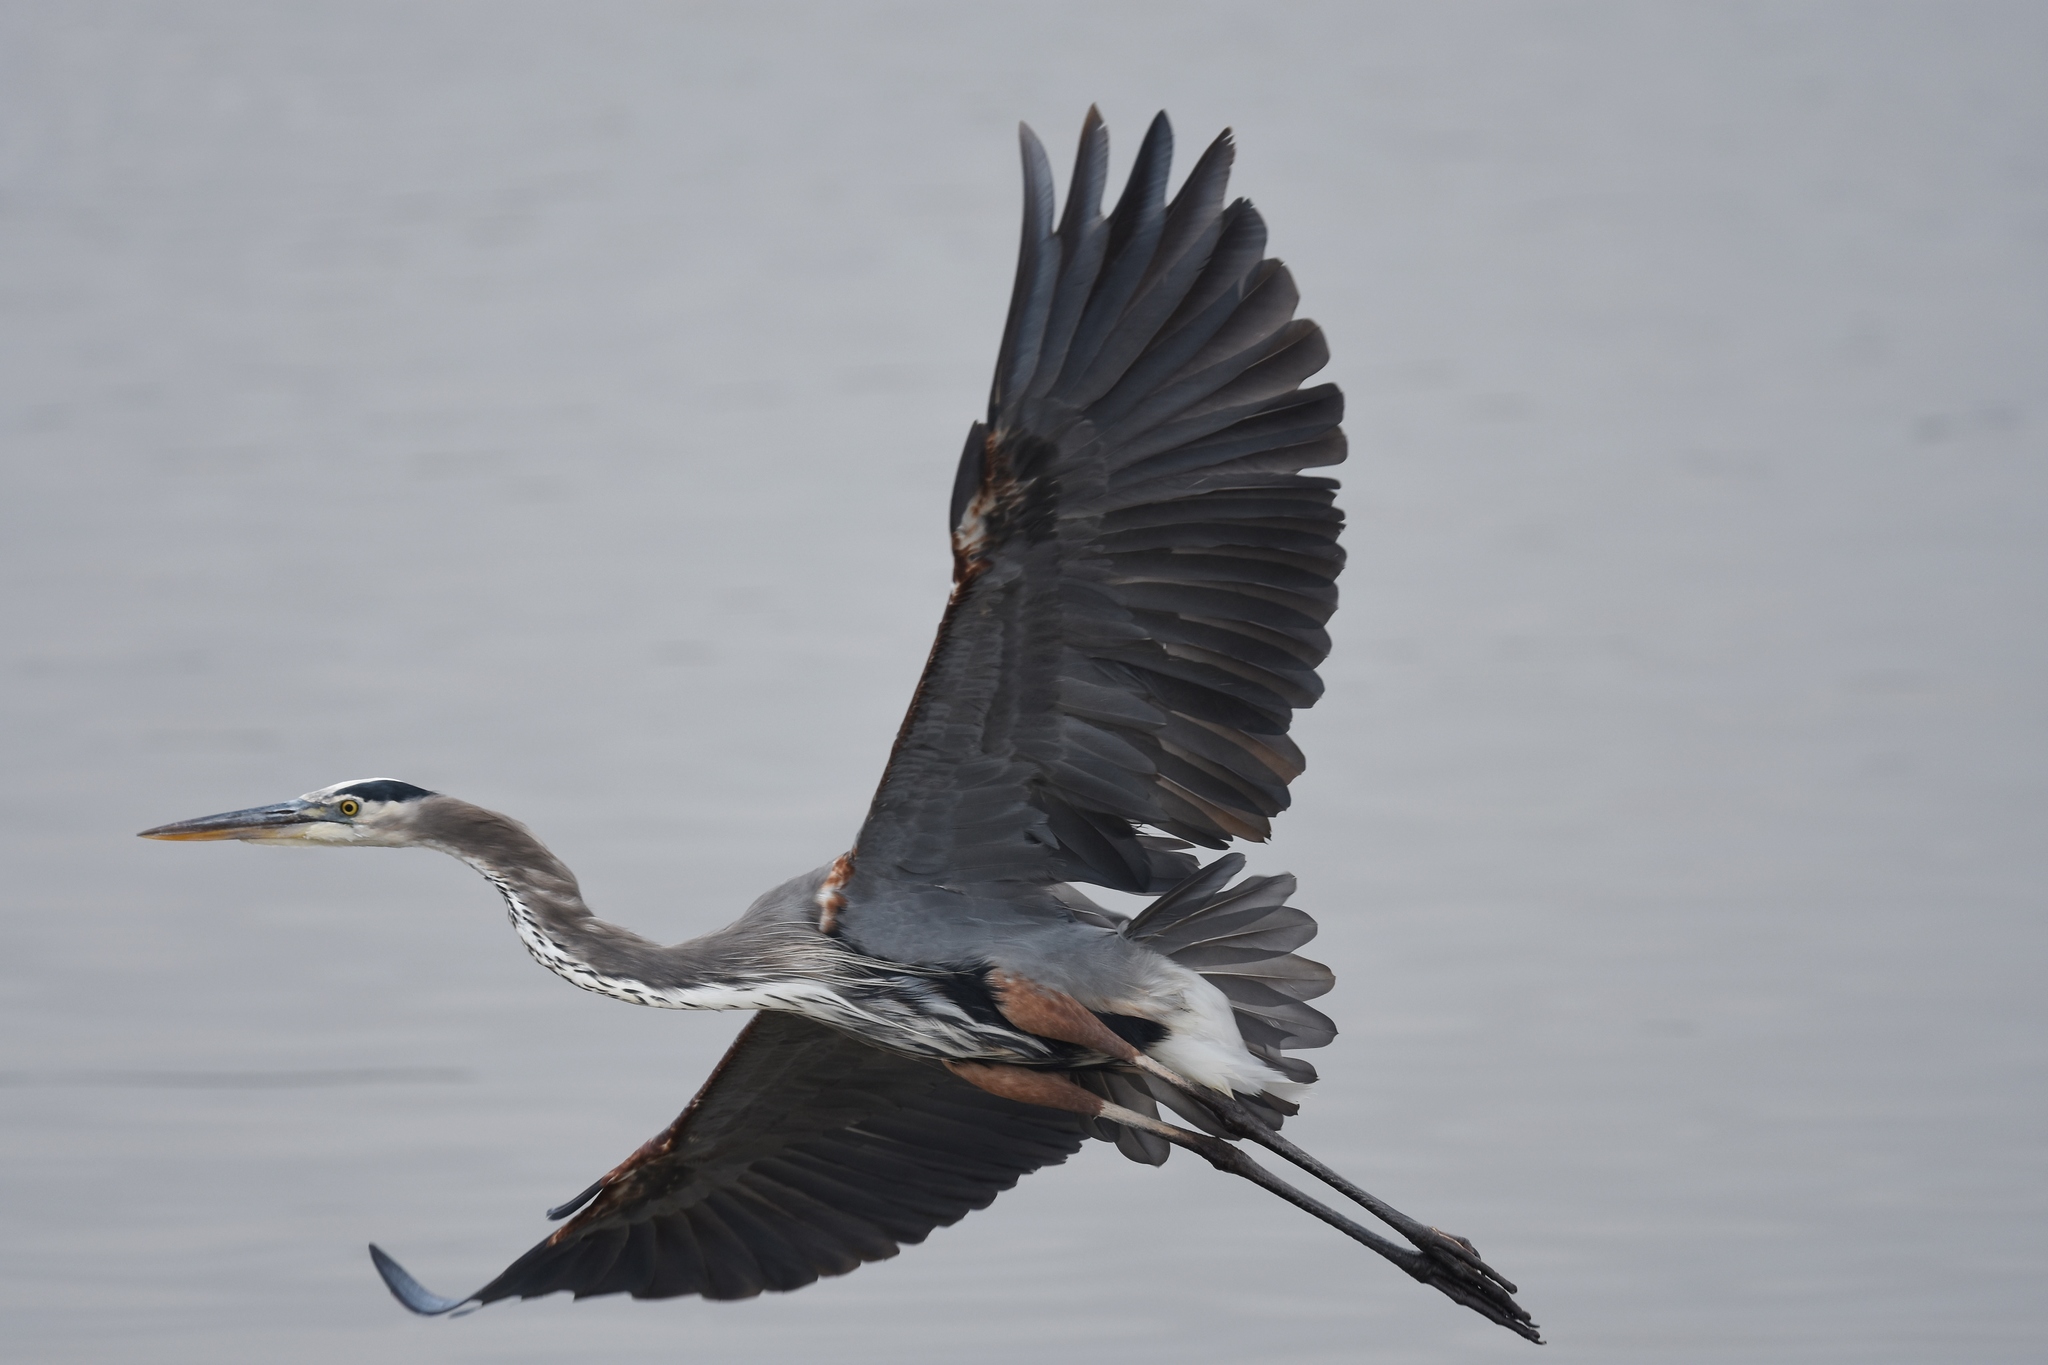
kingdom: Animalia
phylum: Chordata
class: Aves
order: Pelecaniformes
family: Ardeidae
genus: Ardea
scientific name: Ardea herodias
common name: Great blue heron
